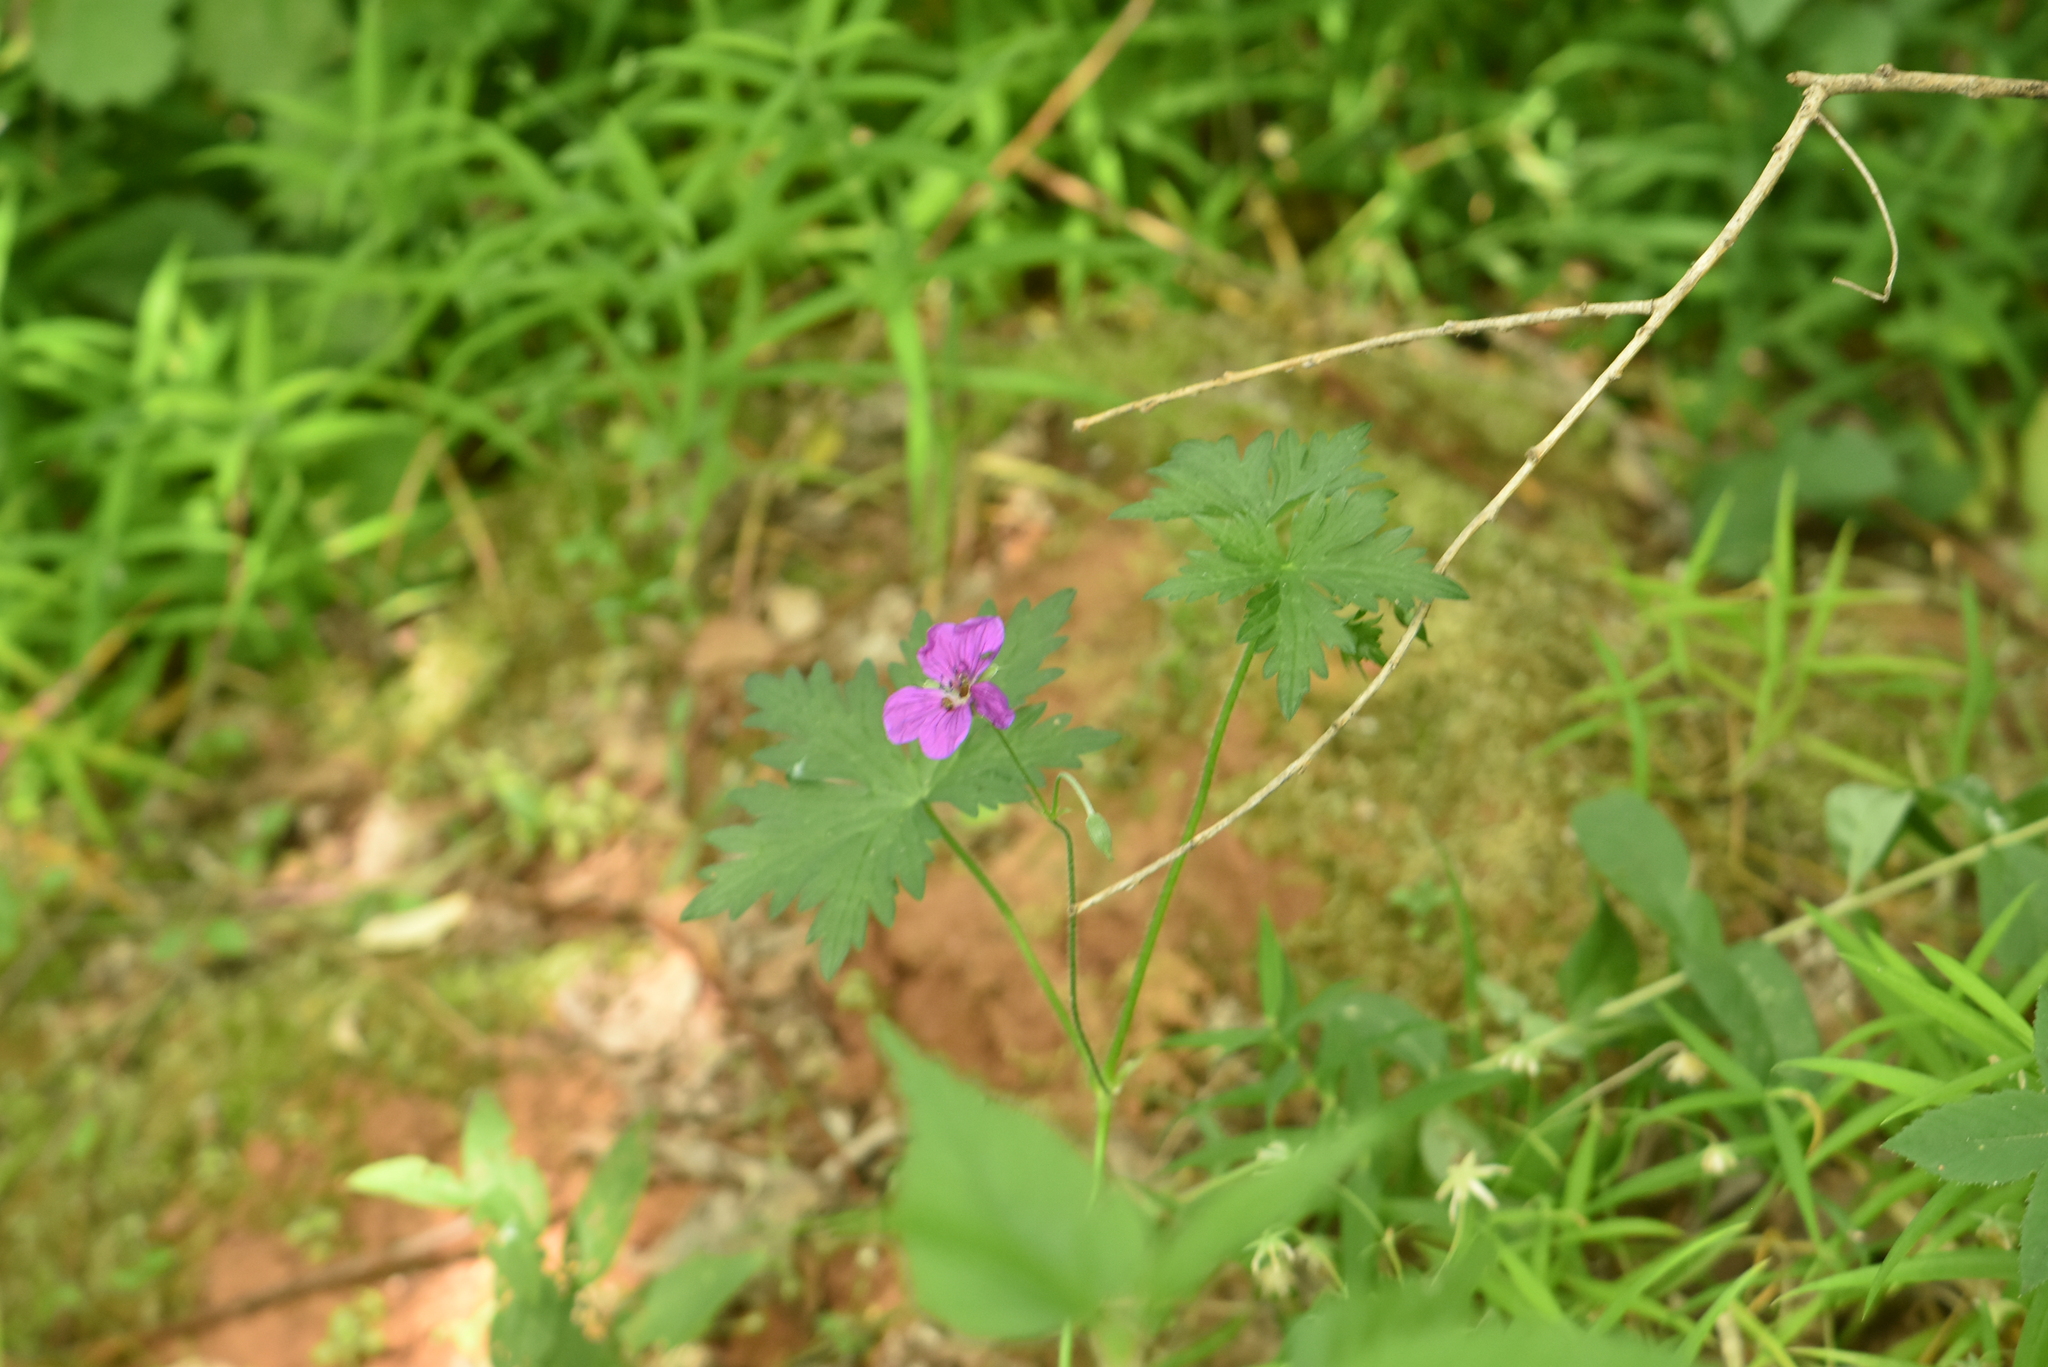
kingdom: Plantae
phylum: Tracheophyta
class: Magnoliopsida
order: Geraniales
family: Geraniaceae
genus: Geranium
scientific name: Geranium palustre
